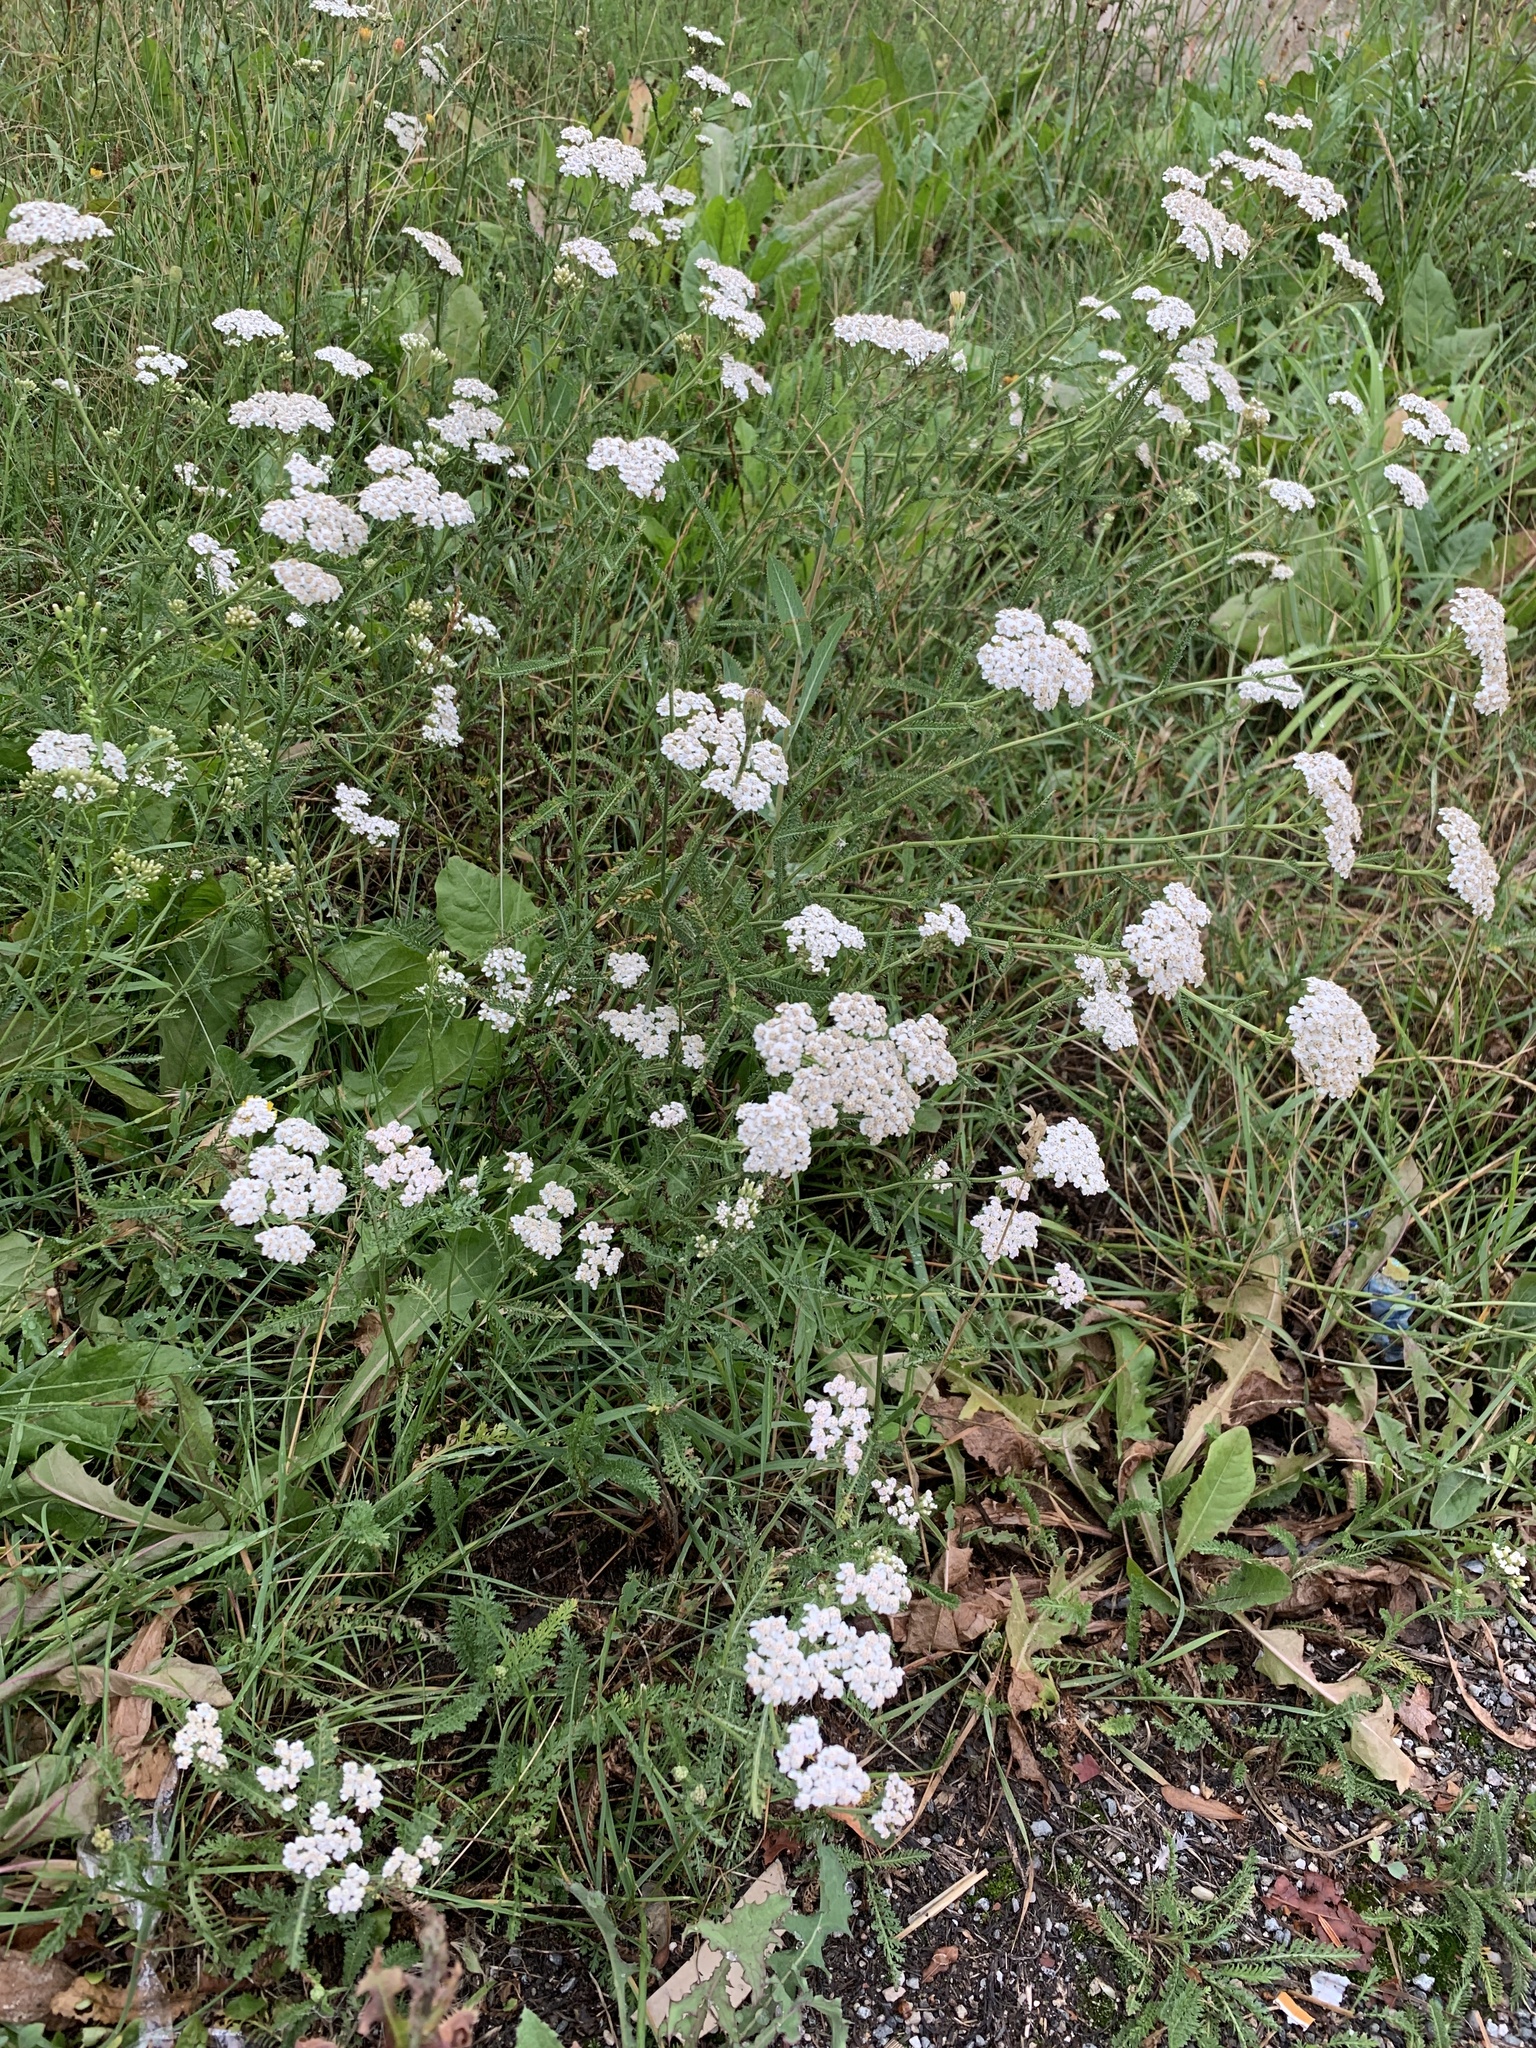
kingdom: Plantae
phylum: Tracheophyta
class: Magnoliopsida
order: Asterales
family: Asteraceae
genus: Achillea
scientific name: Achillea millefolium
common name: Yarrow
